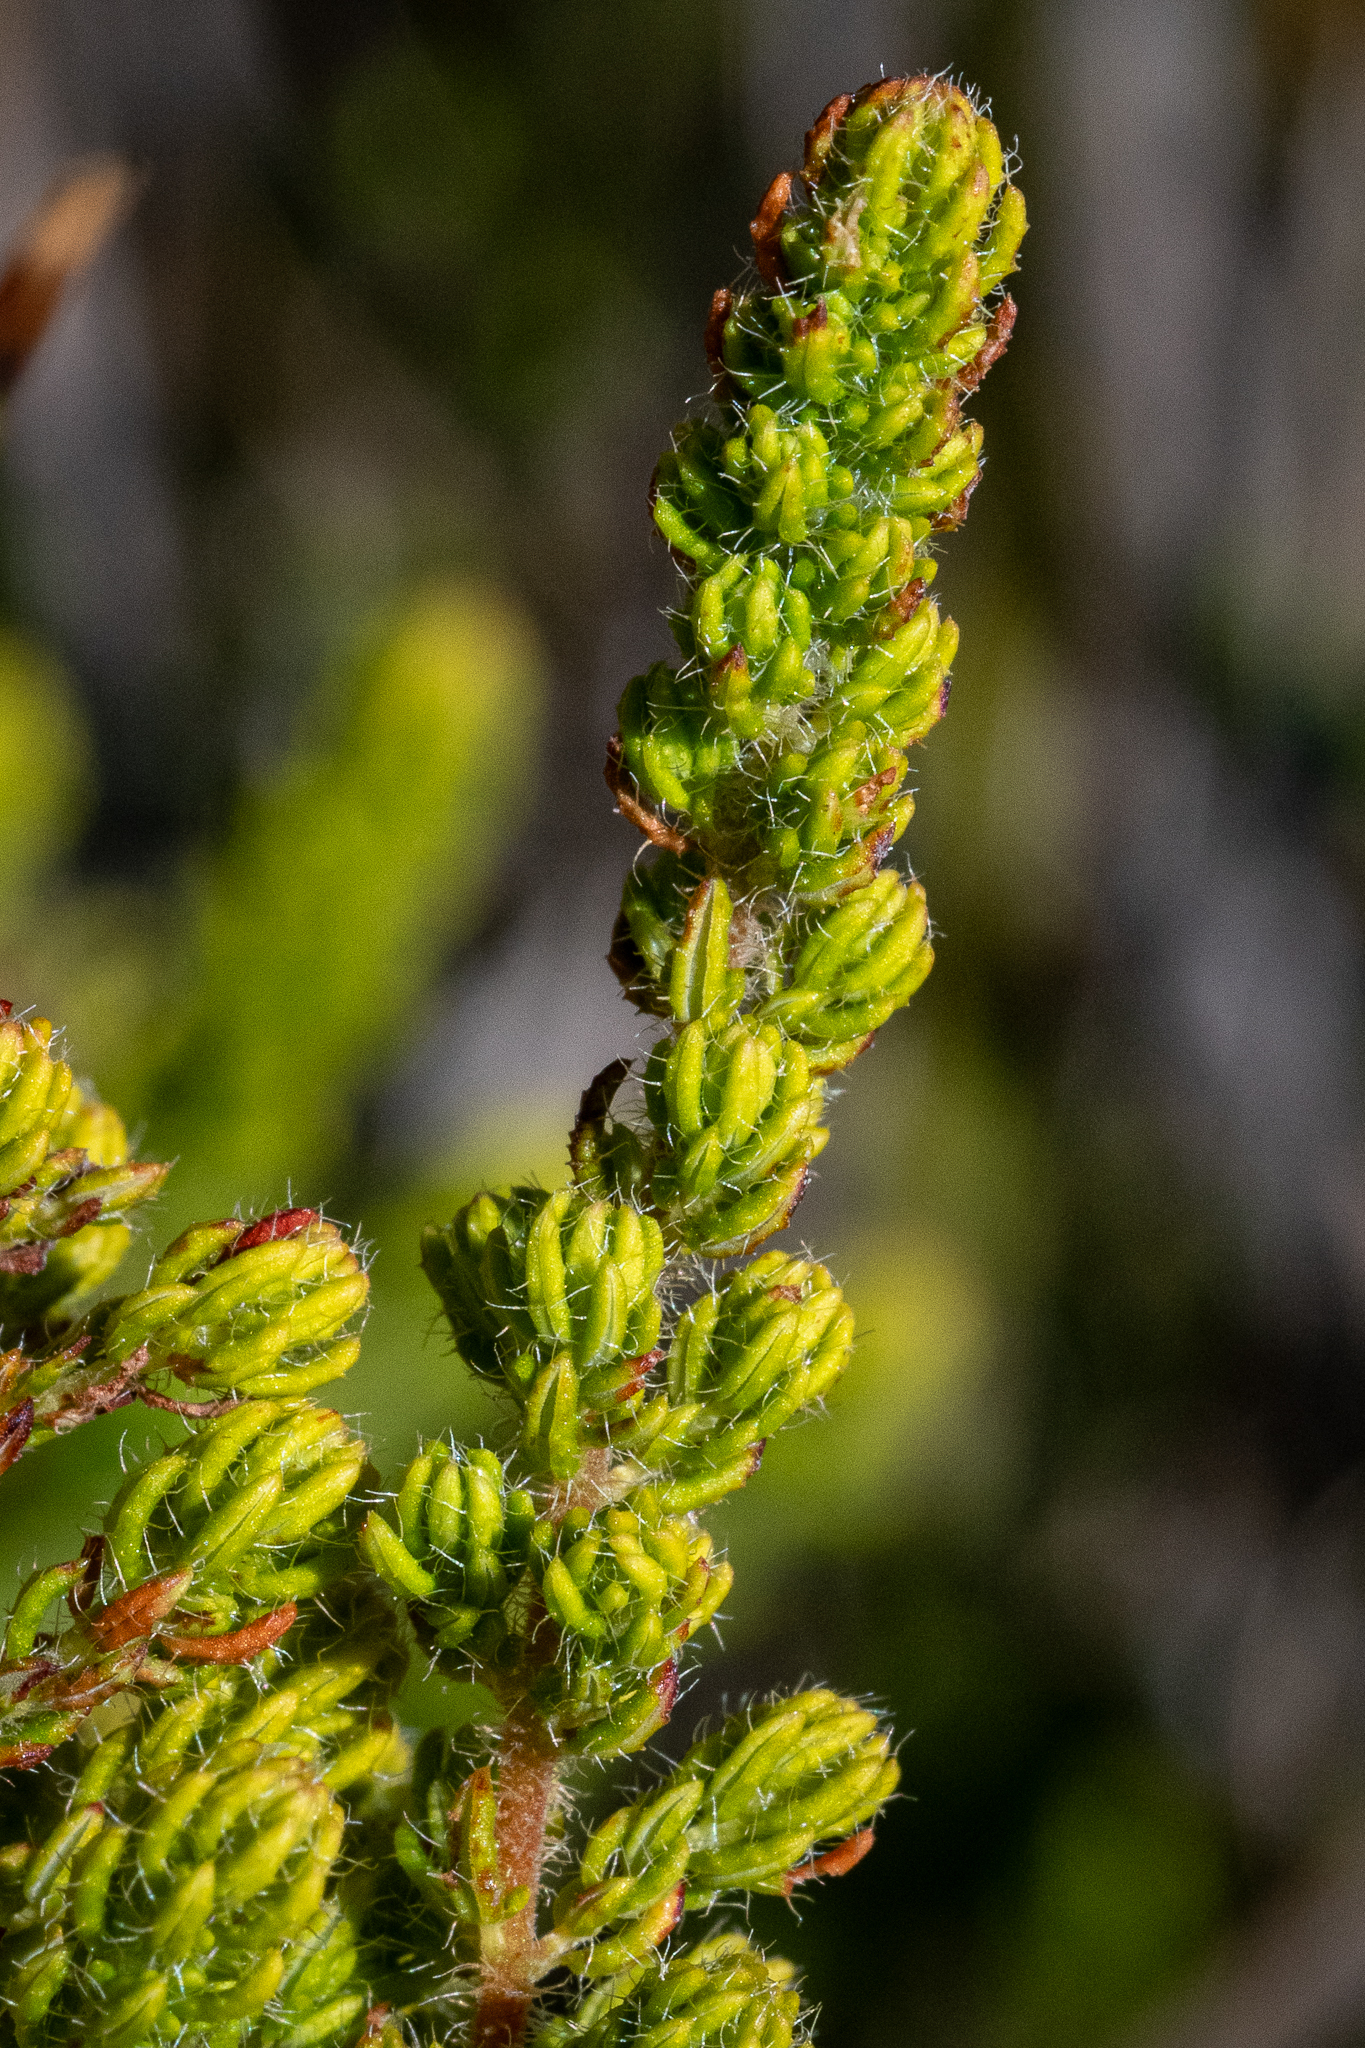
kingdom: Plantae
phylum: Tracheophyta
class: Magnoliopsida
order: Ericales
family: Ericaceae
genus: Erica
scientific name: Erica hispidula
